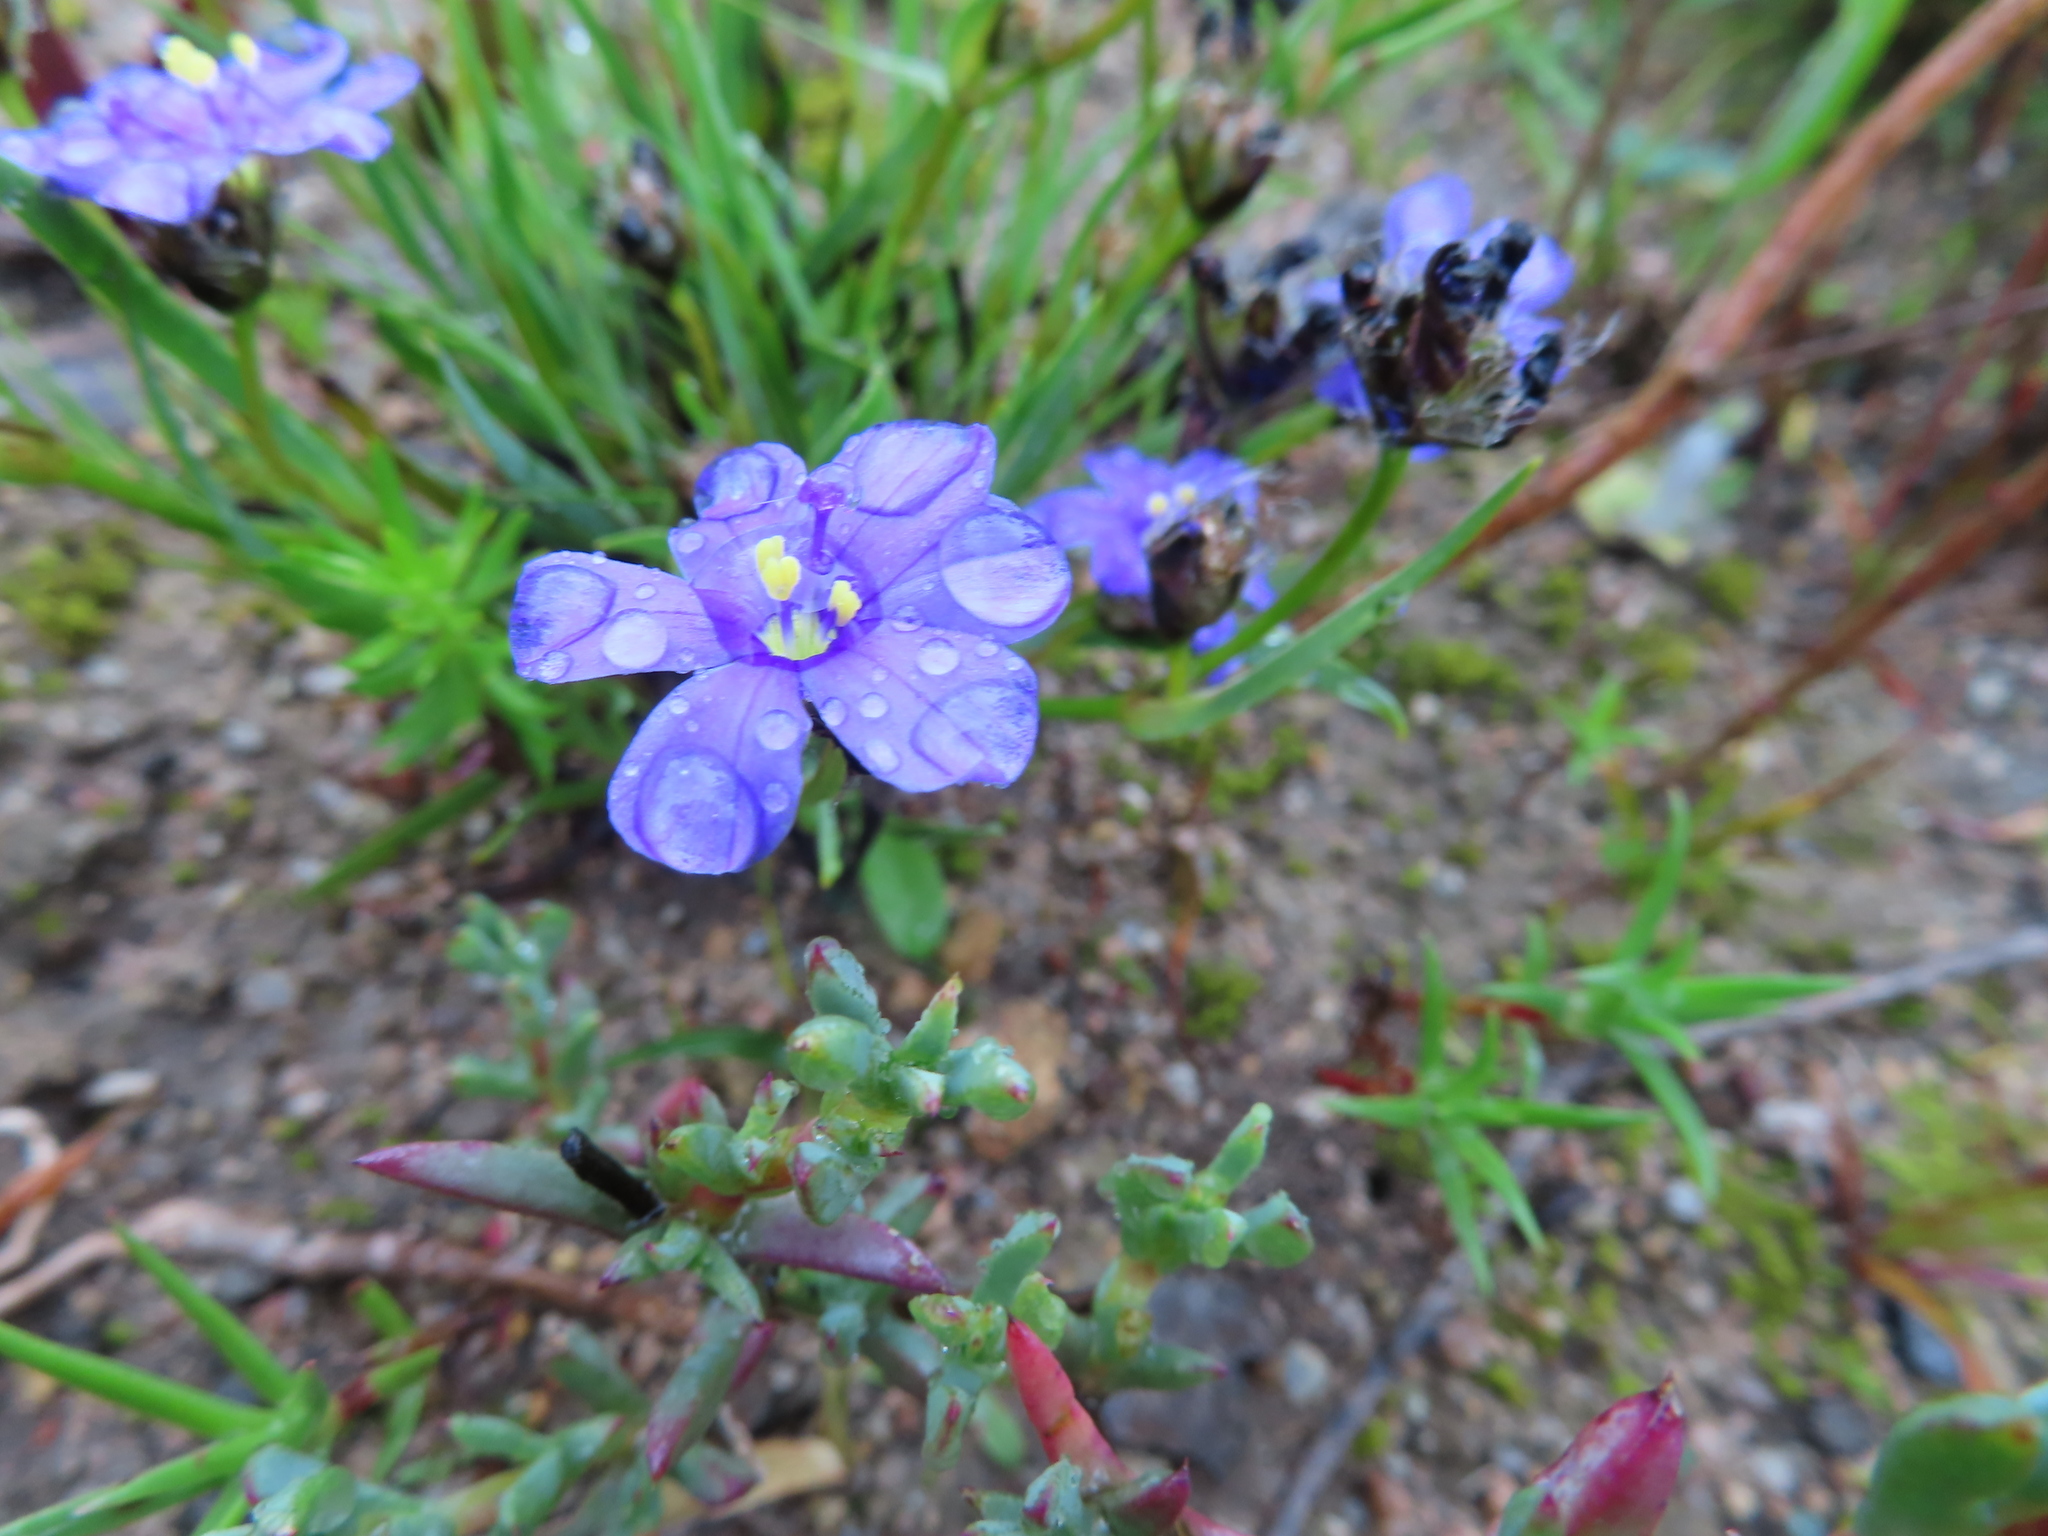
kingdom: Plantae
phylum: Tracheophyta
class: Liliopsida
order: Asparagales
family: Iridaceae
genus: Aristea
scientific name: Aristea africana
